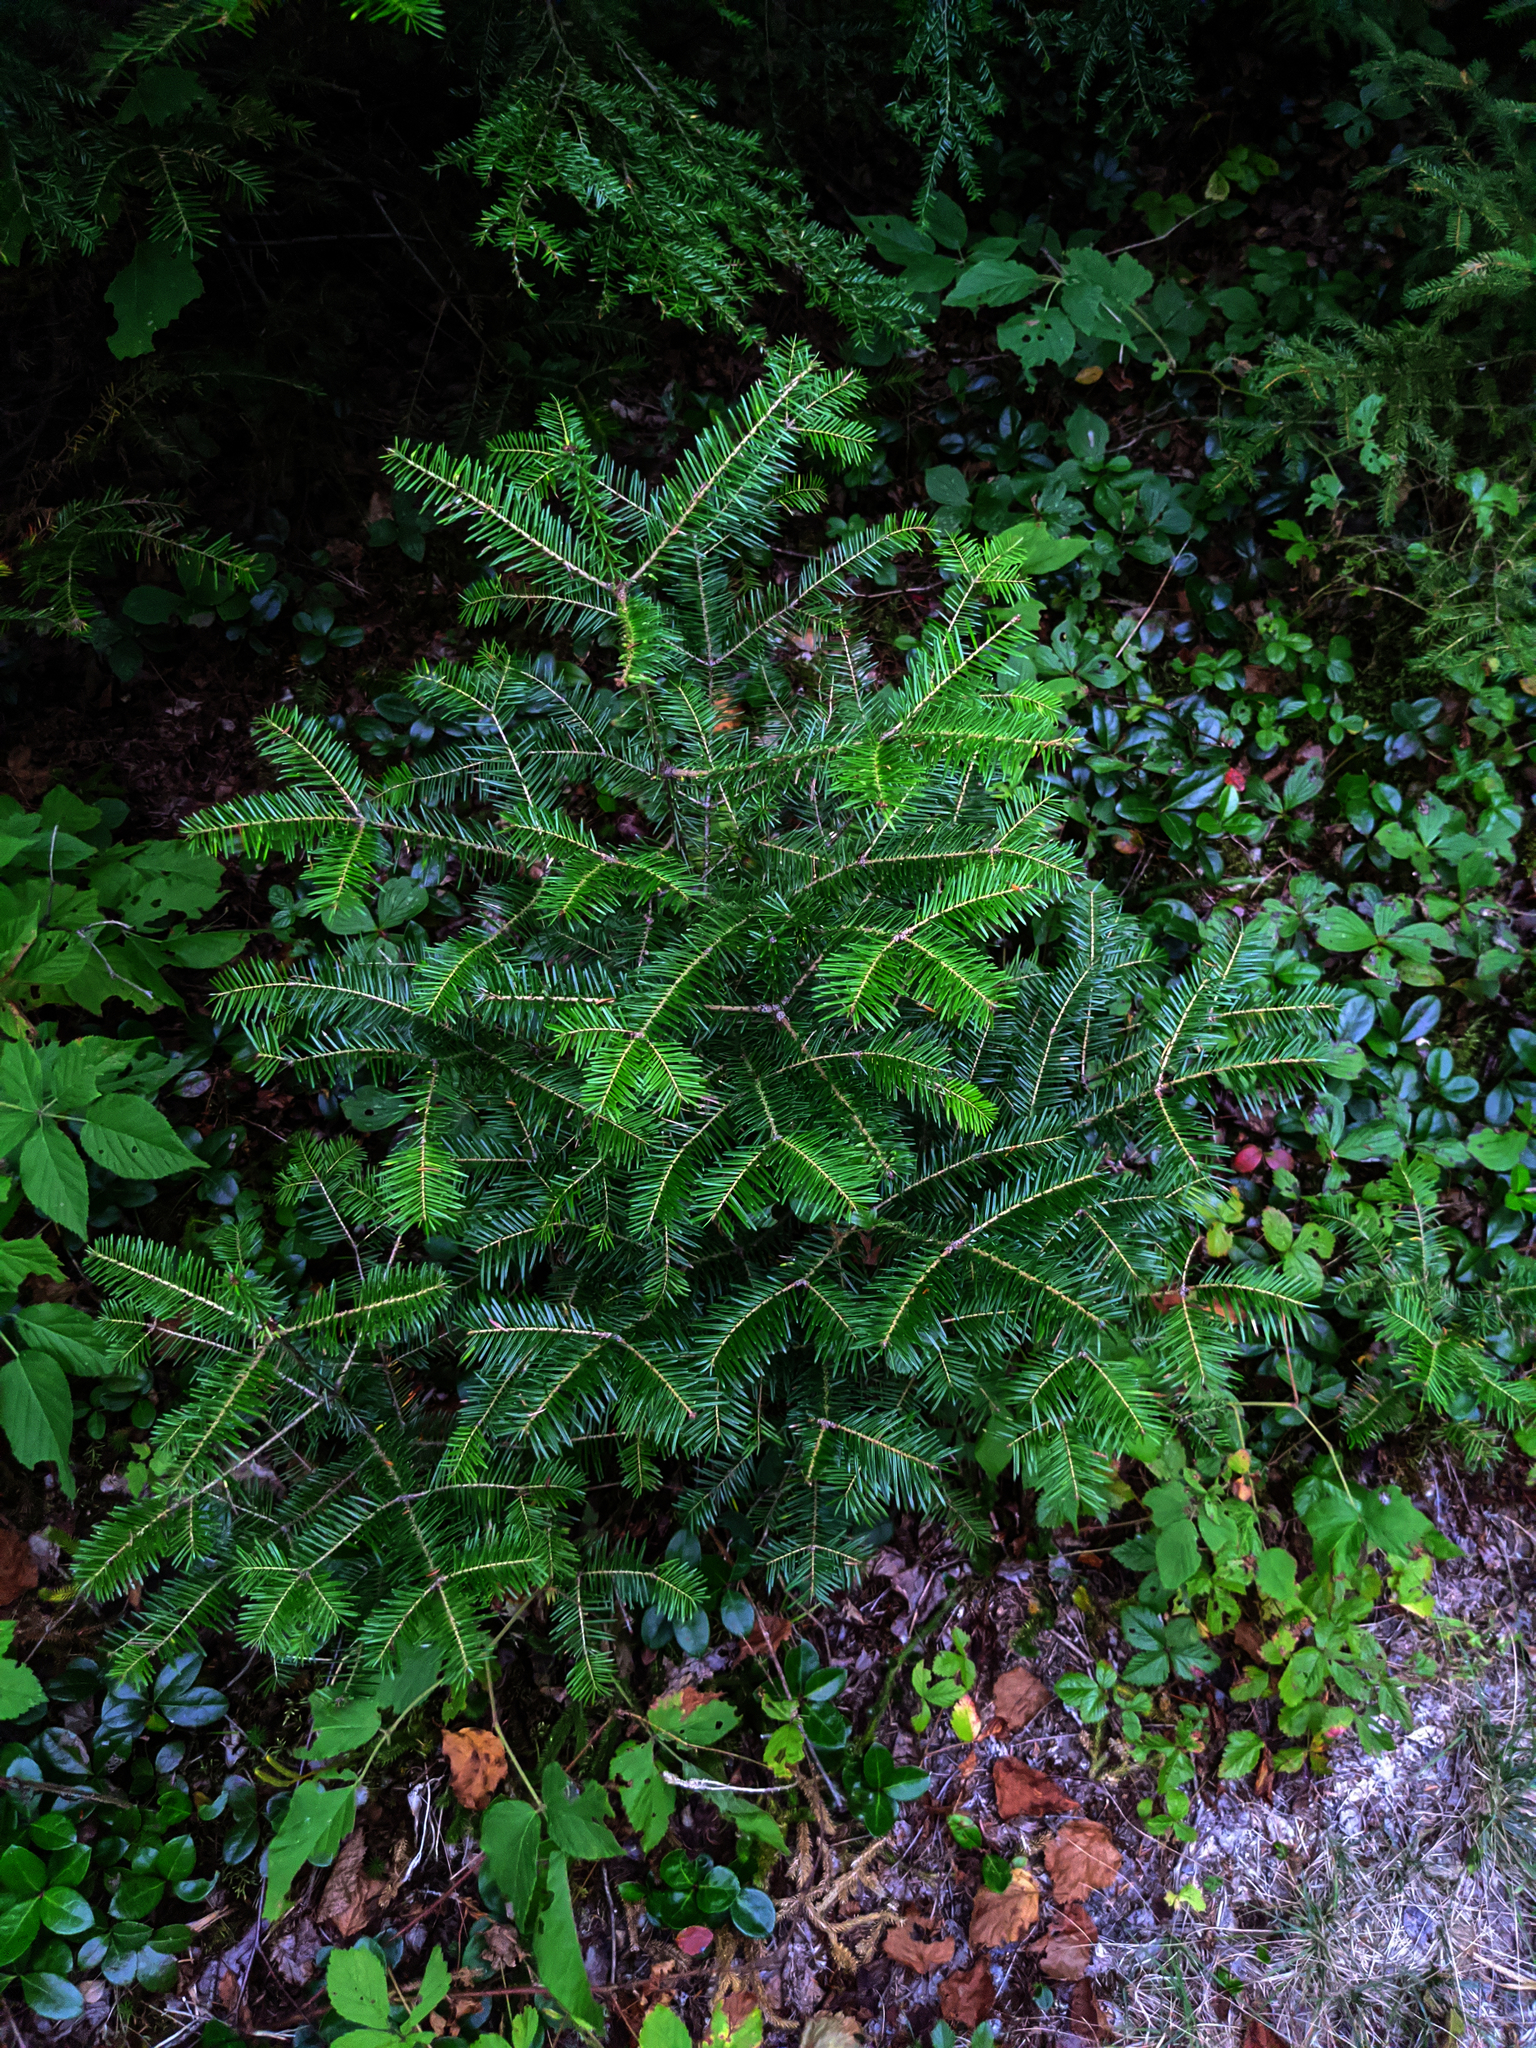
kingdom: Plantae
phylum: Tracheophyta
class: Pinopsida
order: Pinales
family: Pinaceae
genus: Abies
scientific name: Abies balsamea
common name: Balsam fir
